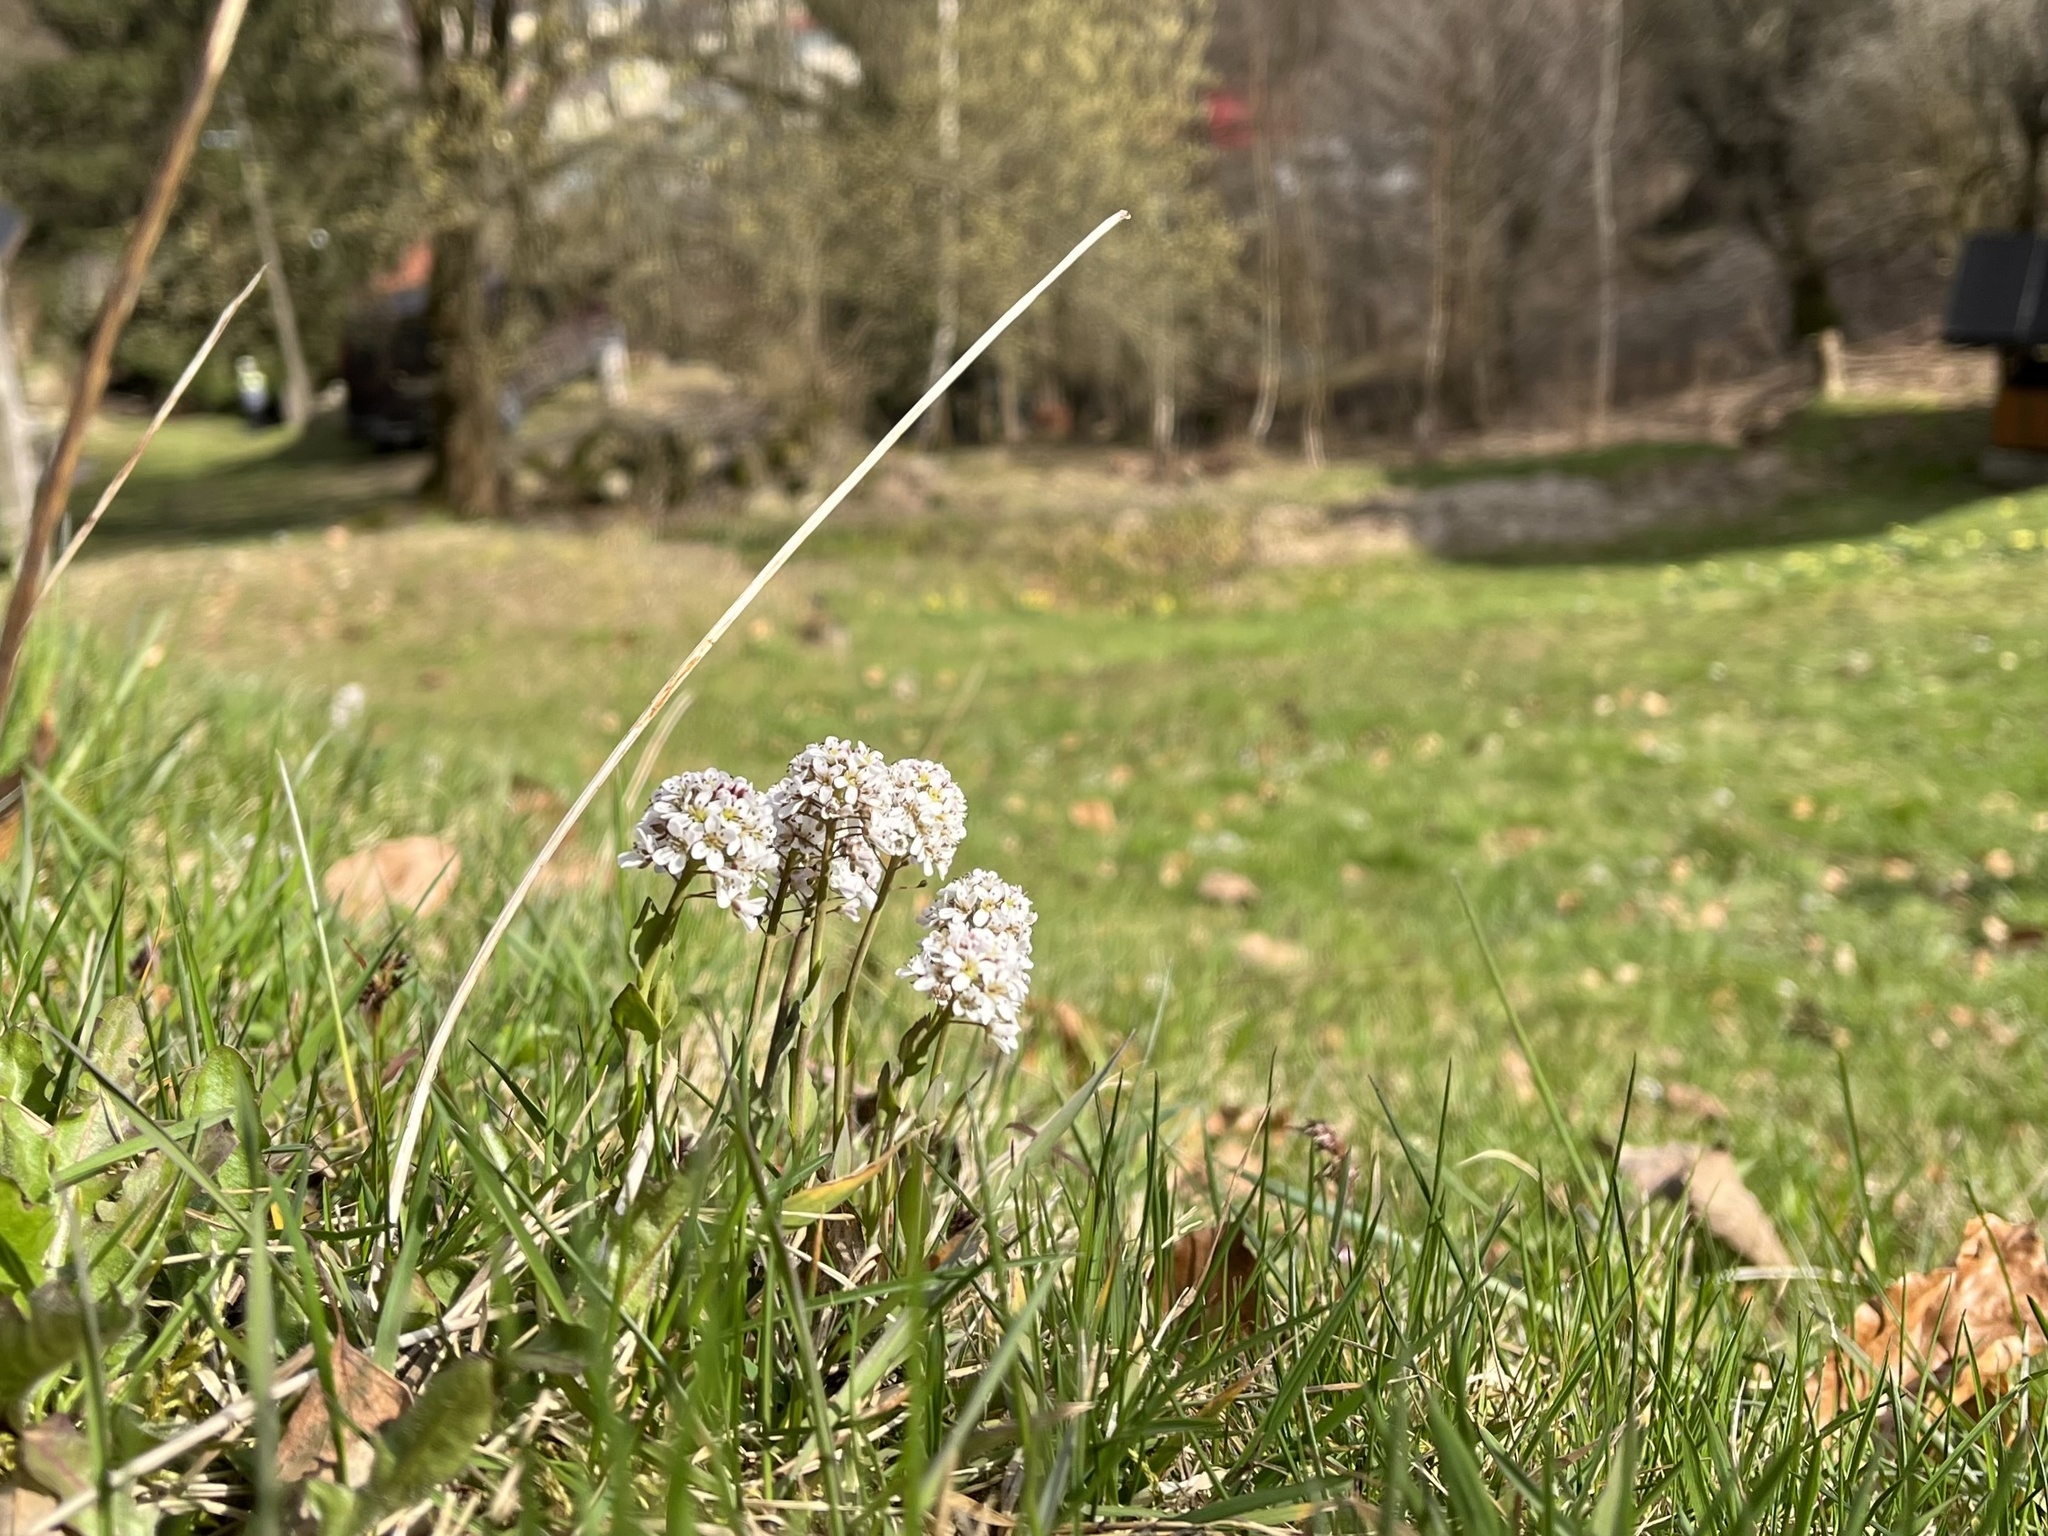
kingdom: Plantae
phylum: Tracheophyta
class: Magnoliopsida
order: Brassicales
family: Brassicaceae
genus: Noccaea
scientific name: Noccaea caerulescens
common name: Alpine pennycress
